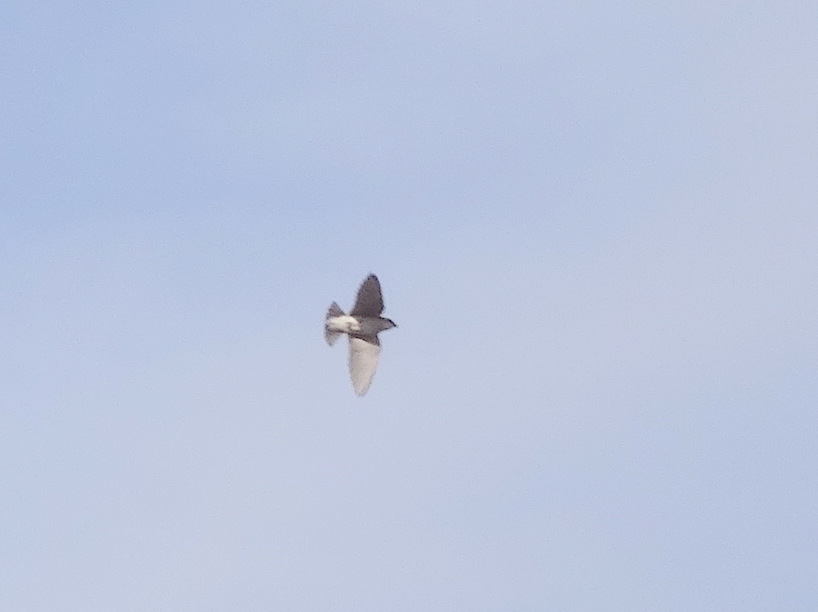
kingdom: Animalia
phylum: Chordata
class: Aves
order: Passeriformes
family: Hirundinidae
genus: Tachycineta
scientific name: Tachycineta bicolor
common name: Tree swallow
